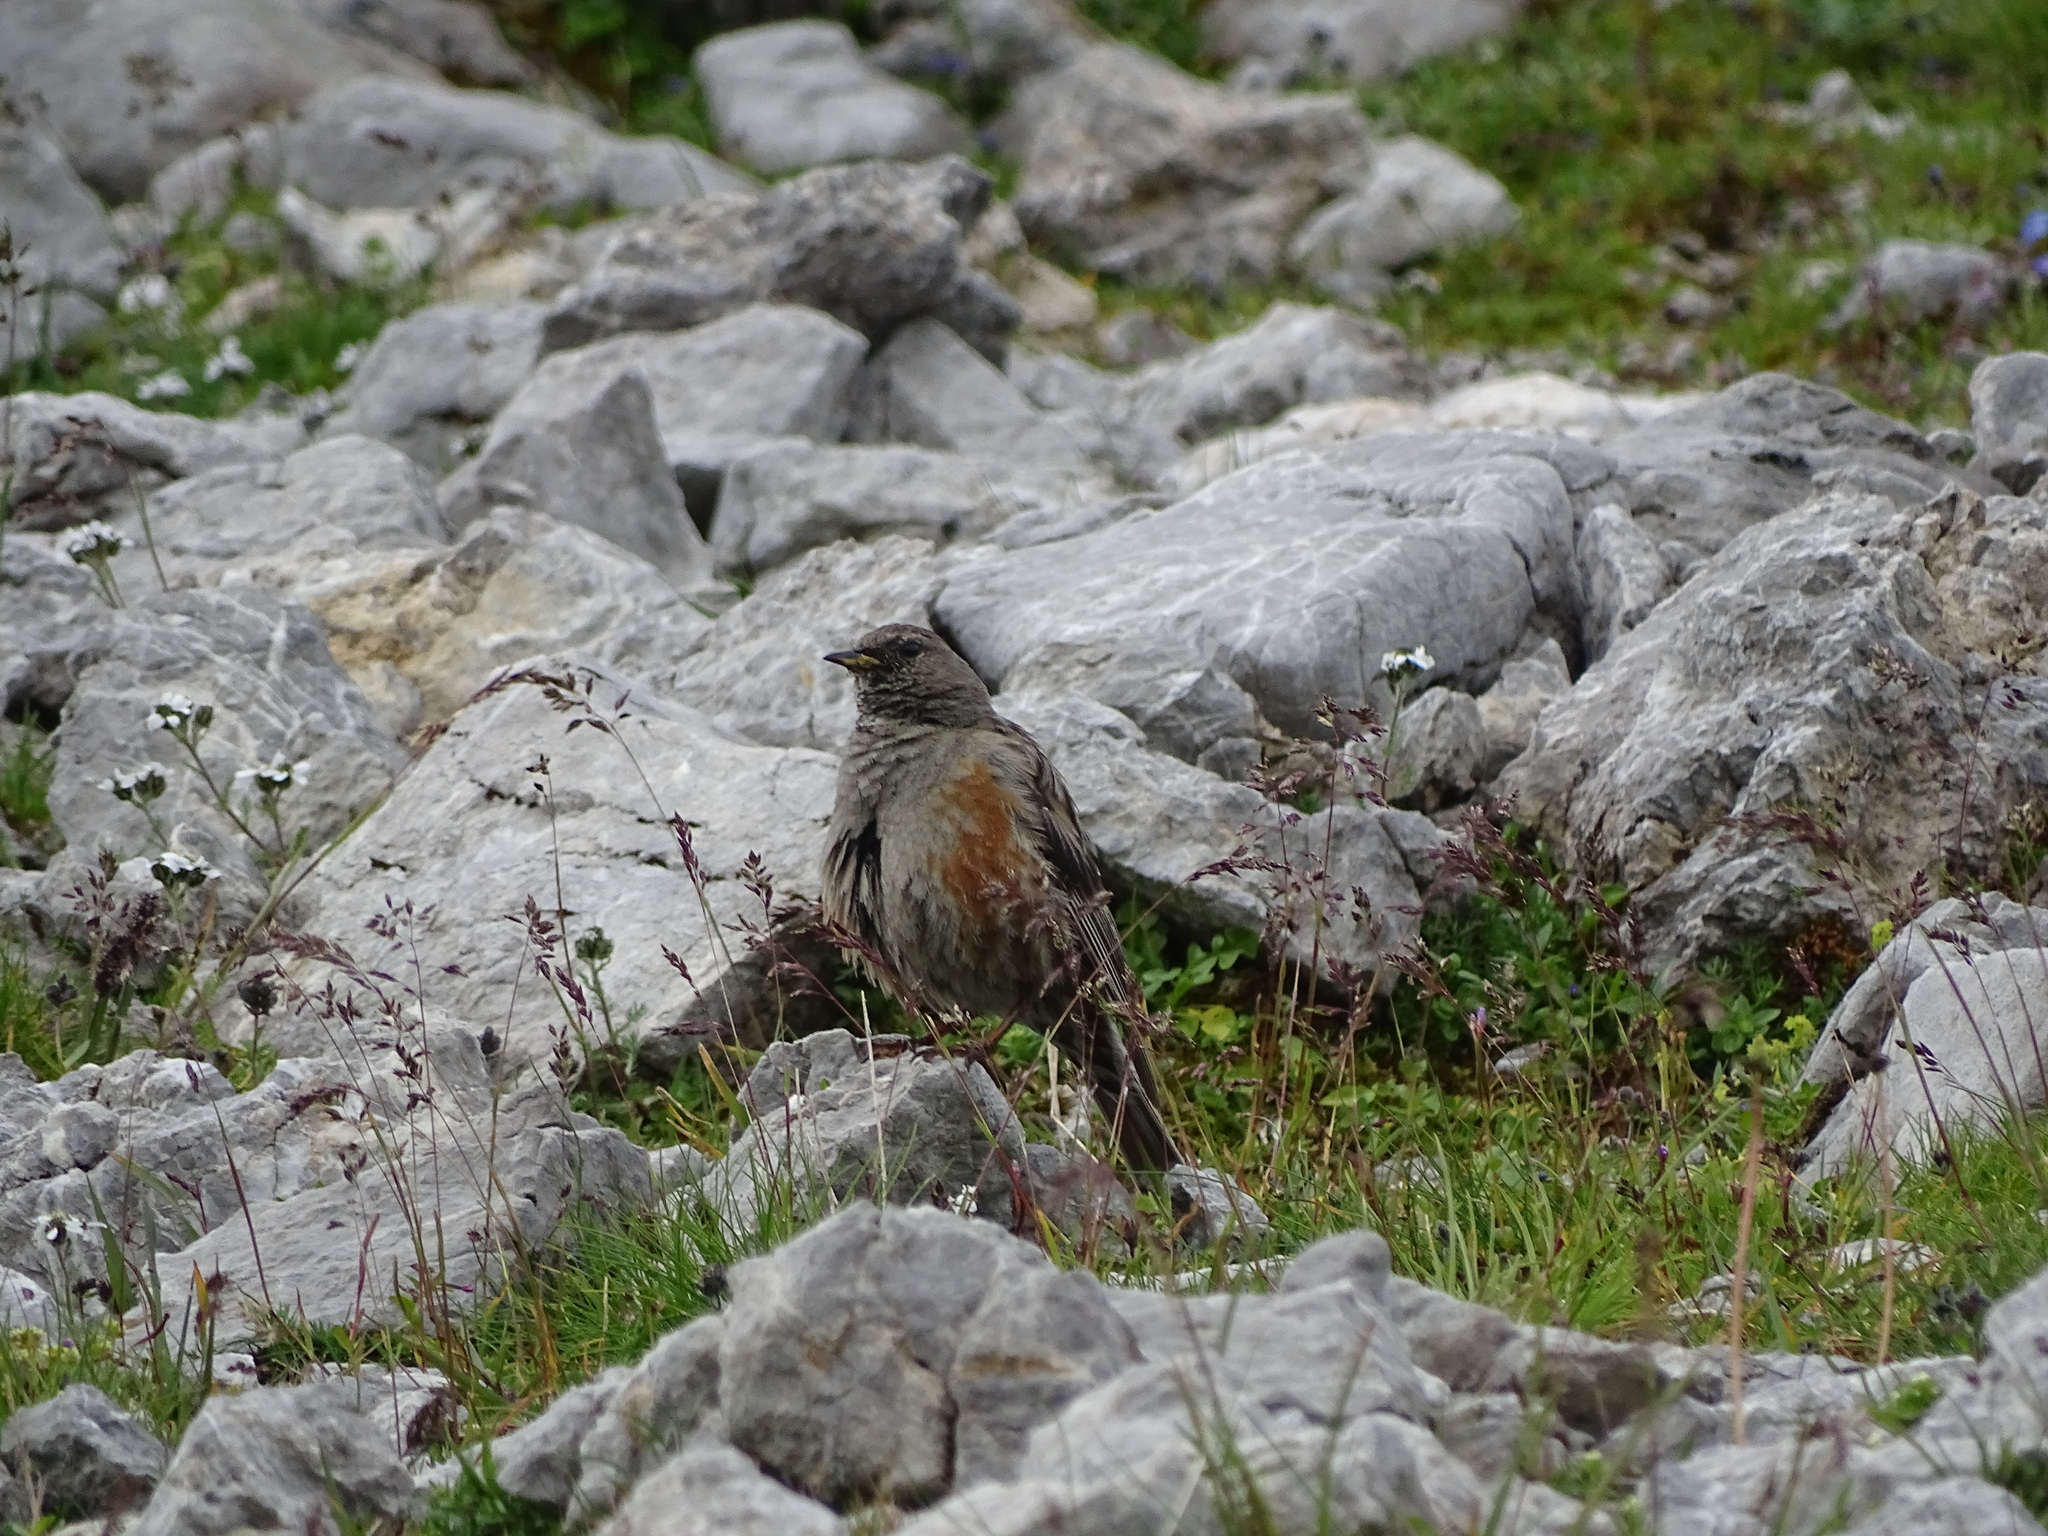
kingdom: Animalia
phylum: Chordata
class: Aves
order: Passeriformes
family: Prunellidae
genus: Prunella
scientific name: Prunella collaris
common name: Alpine accentor
